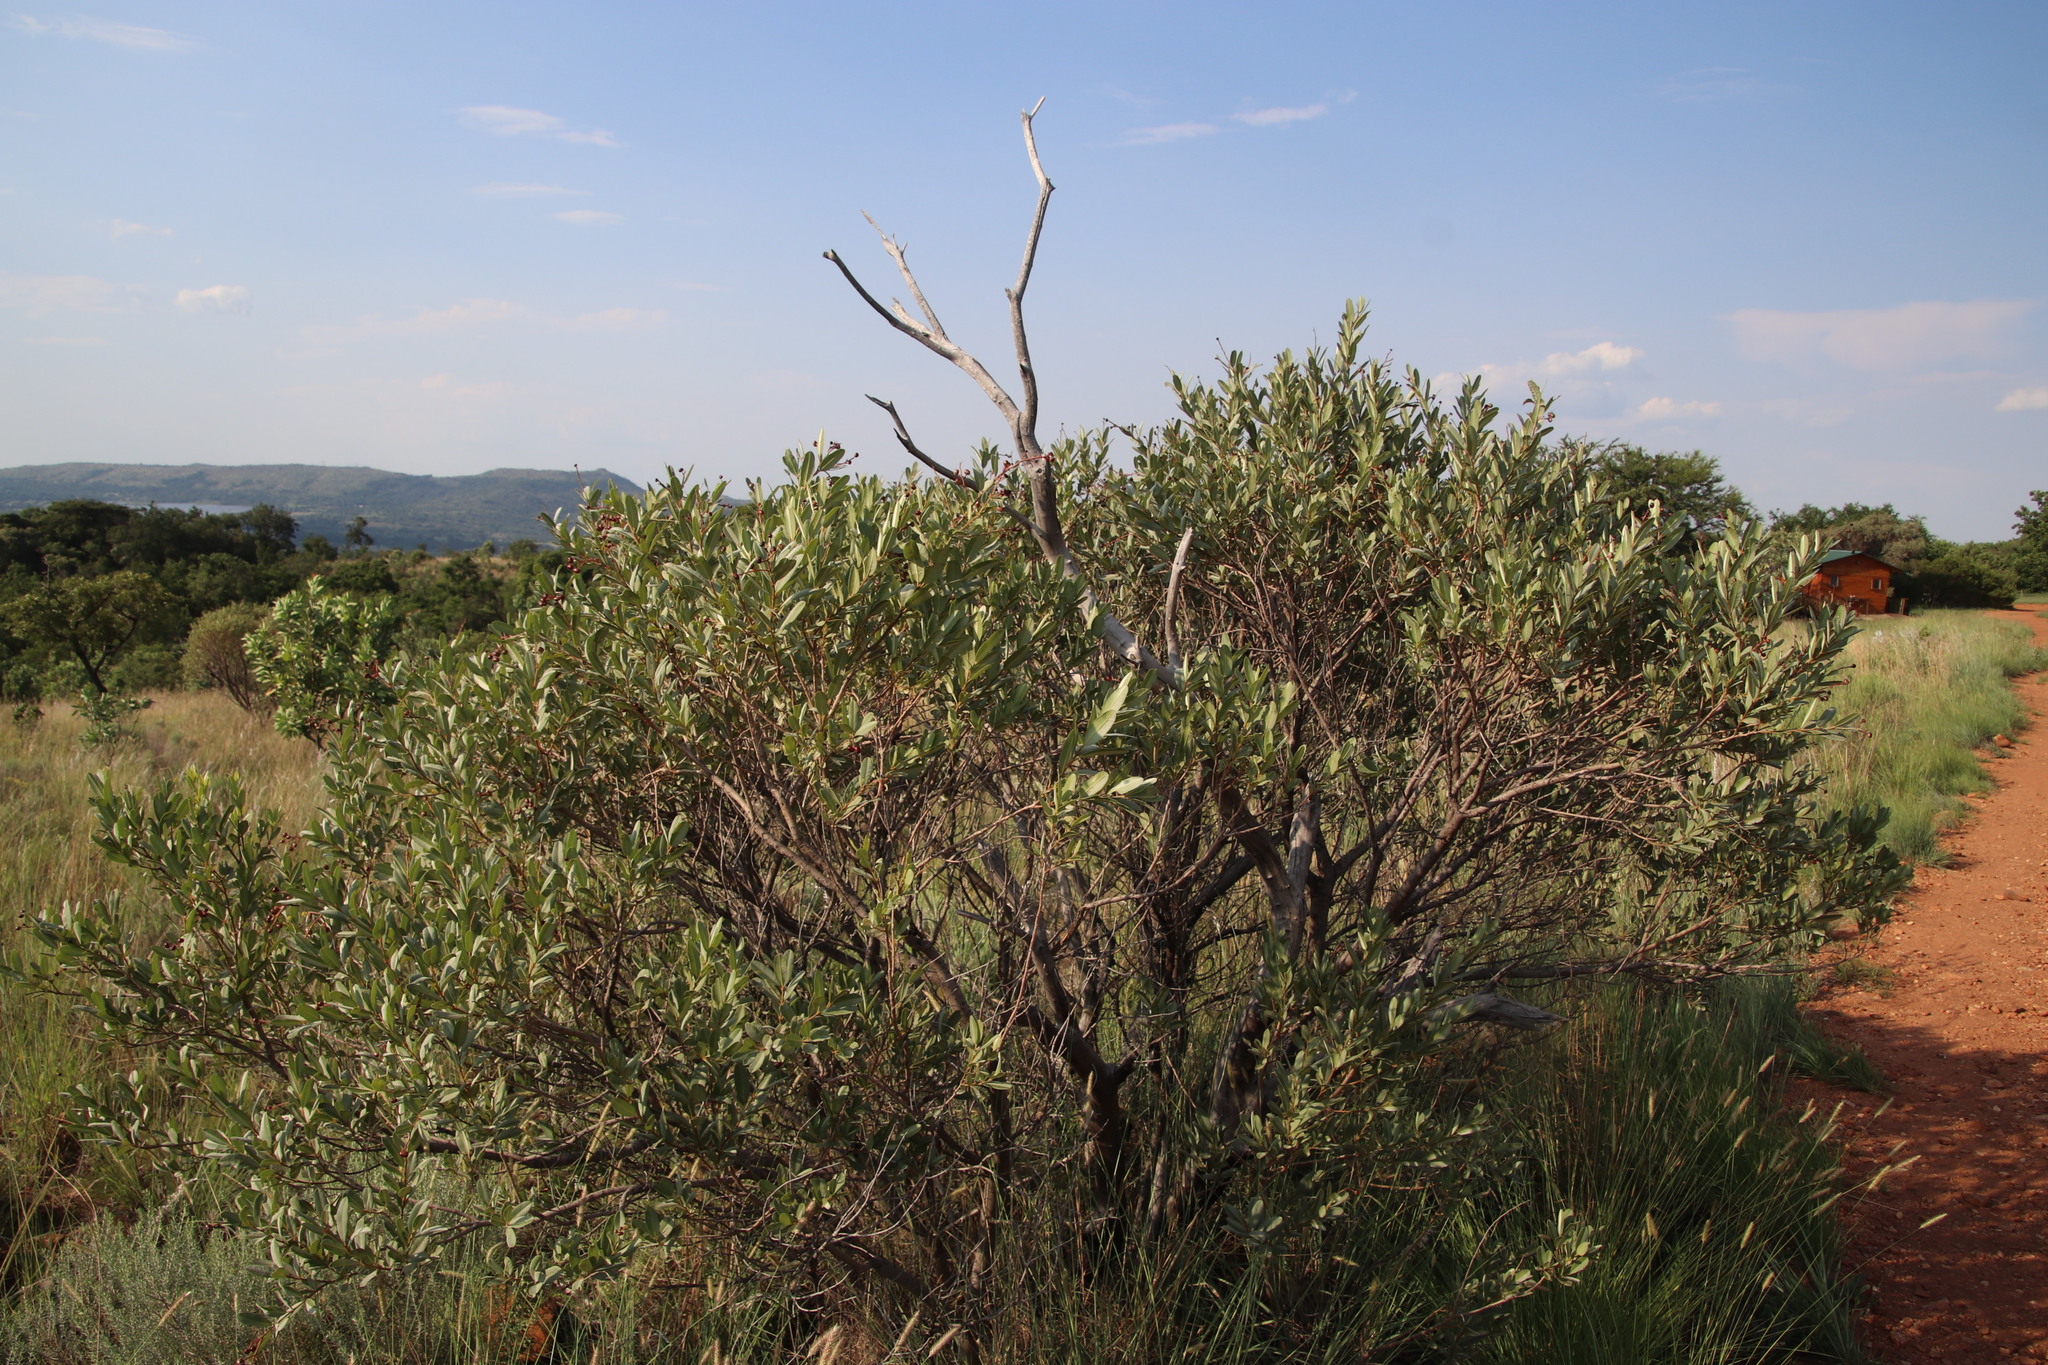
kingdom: Plantae
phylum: Tracheophyta
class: Magnoliopsida
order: Sapindales
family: Anacardiaceae
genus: Ozoroa
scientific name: Ozoroa paniculosa
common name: Bushveld ozoroa
